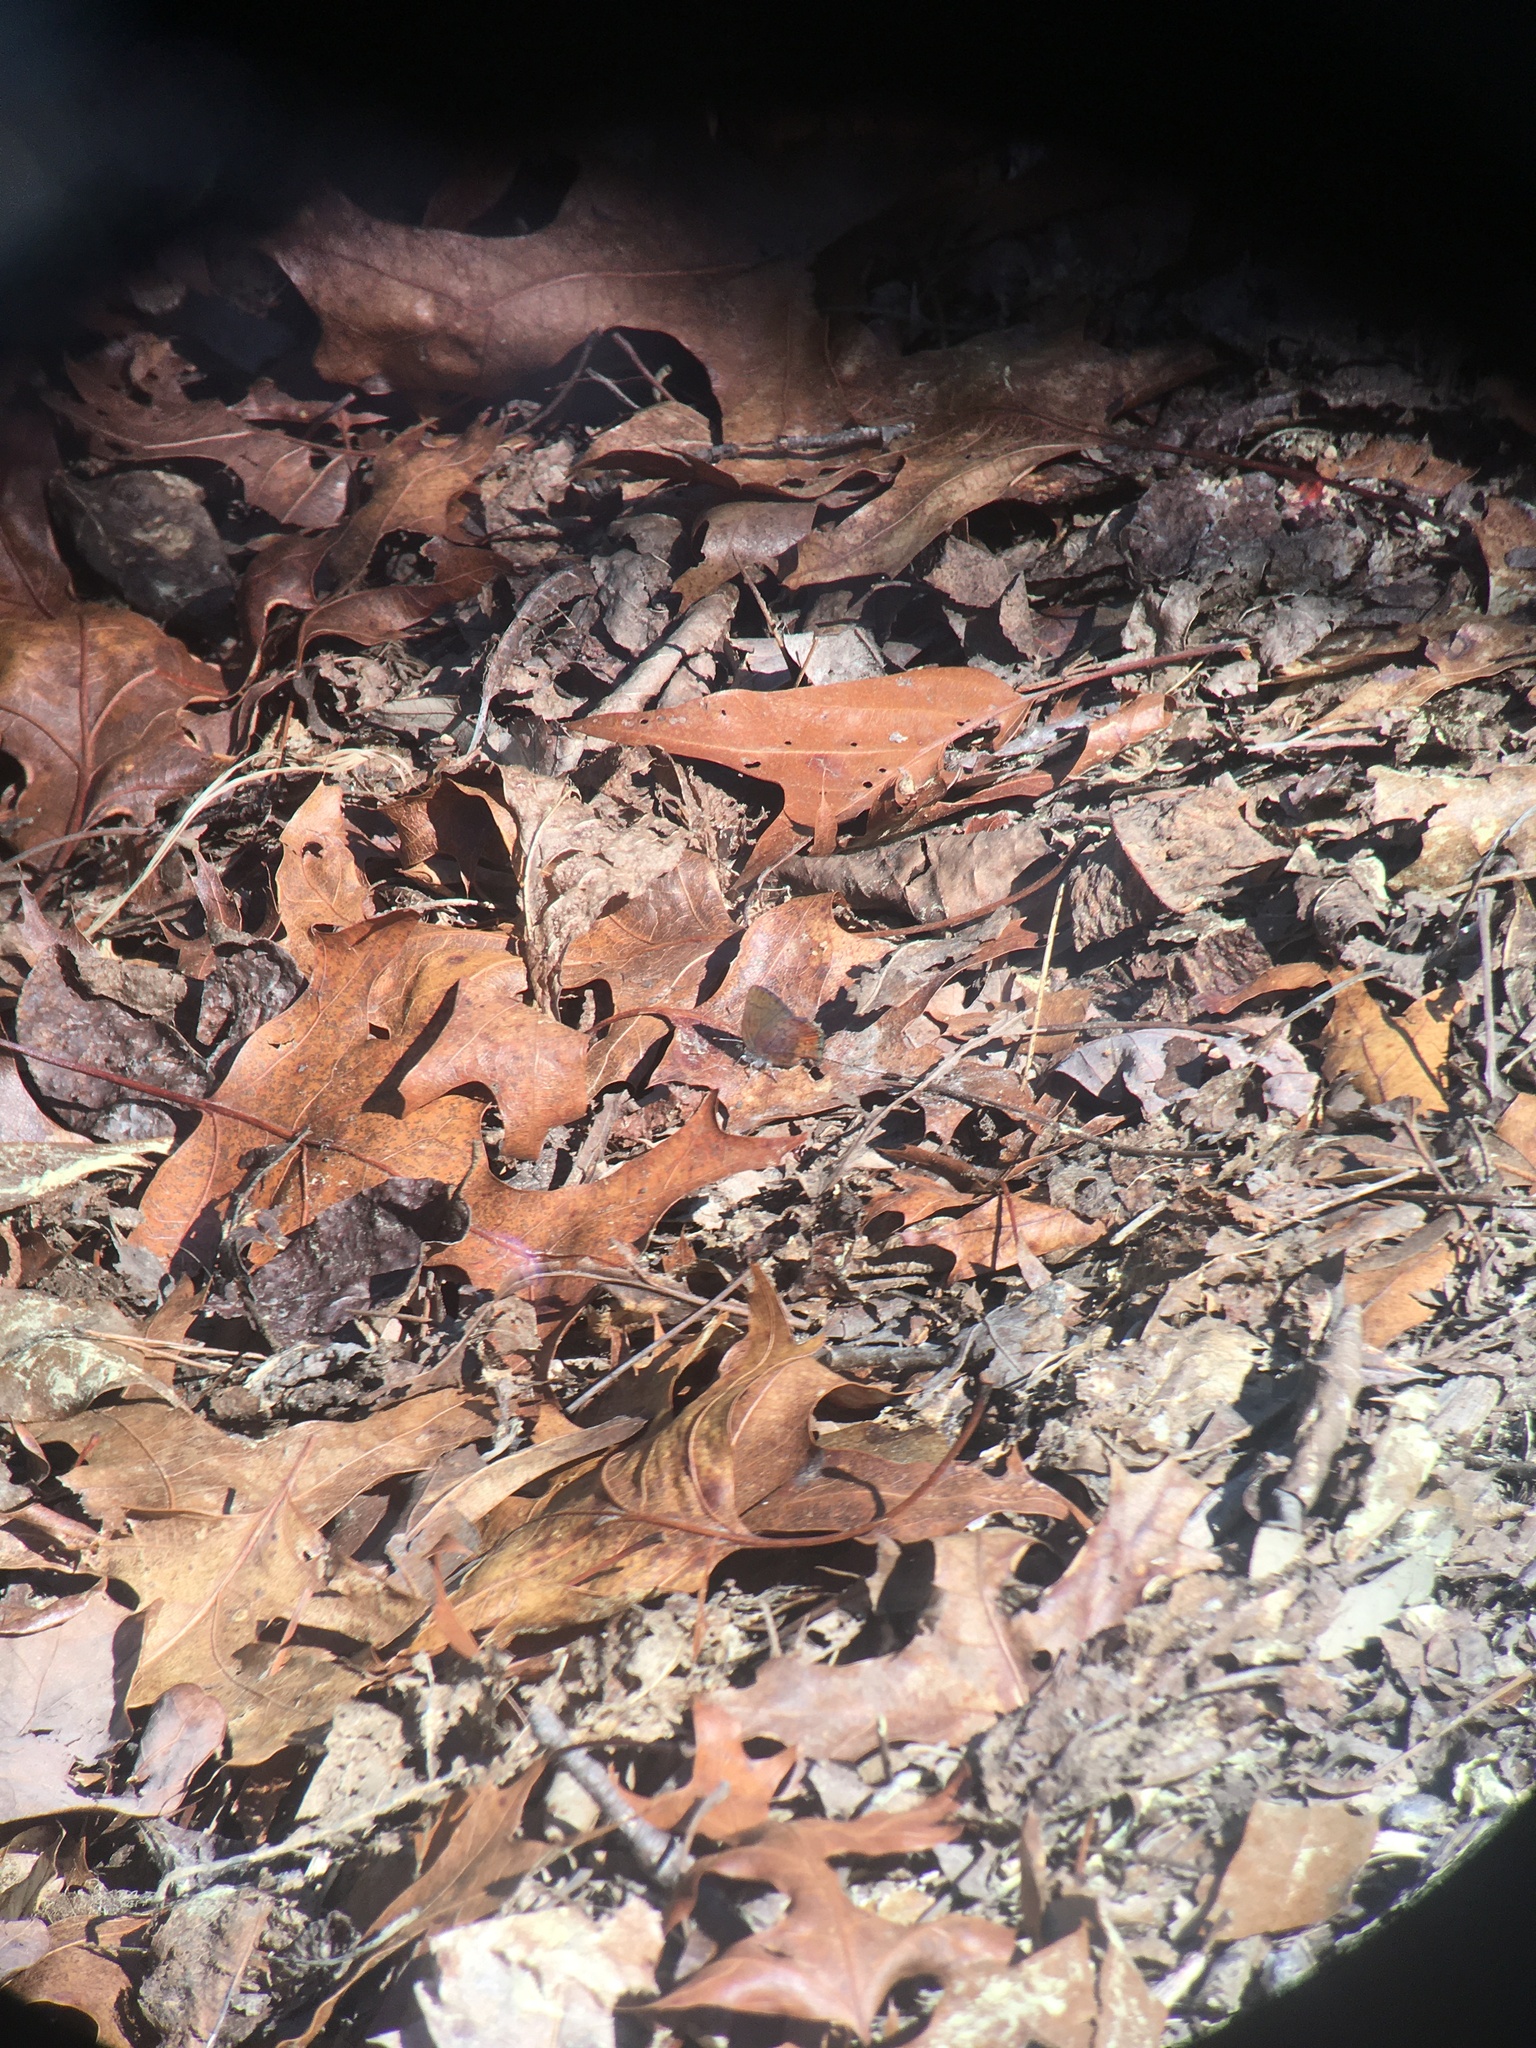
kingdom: Animalia
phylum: Arthropoda
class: Insecta
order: Lepidoptera
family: Lycaenidae
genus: Incisalia
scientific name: Incisalia irioides
